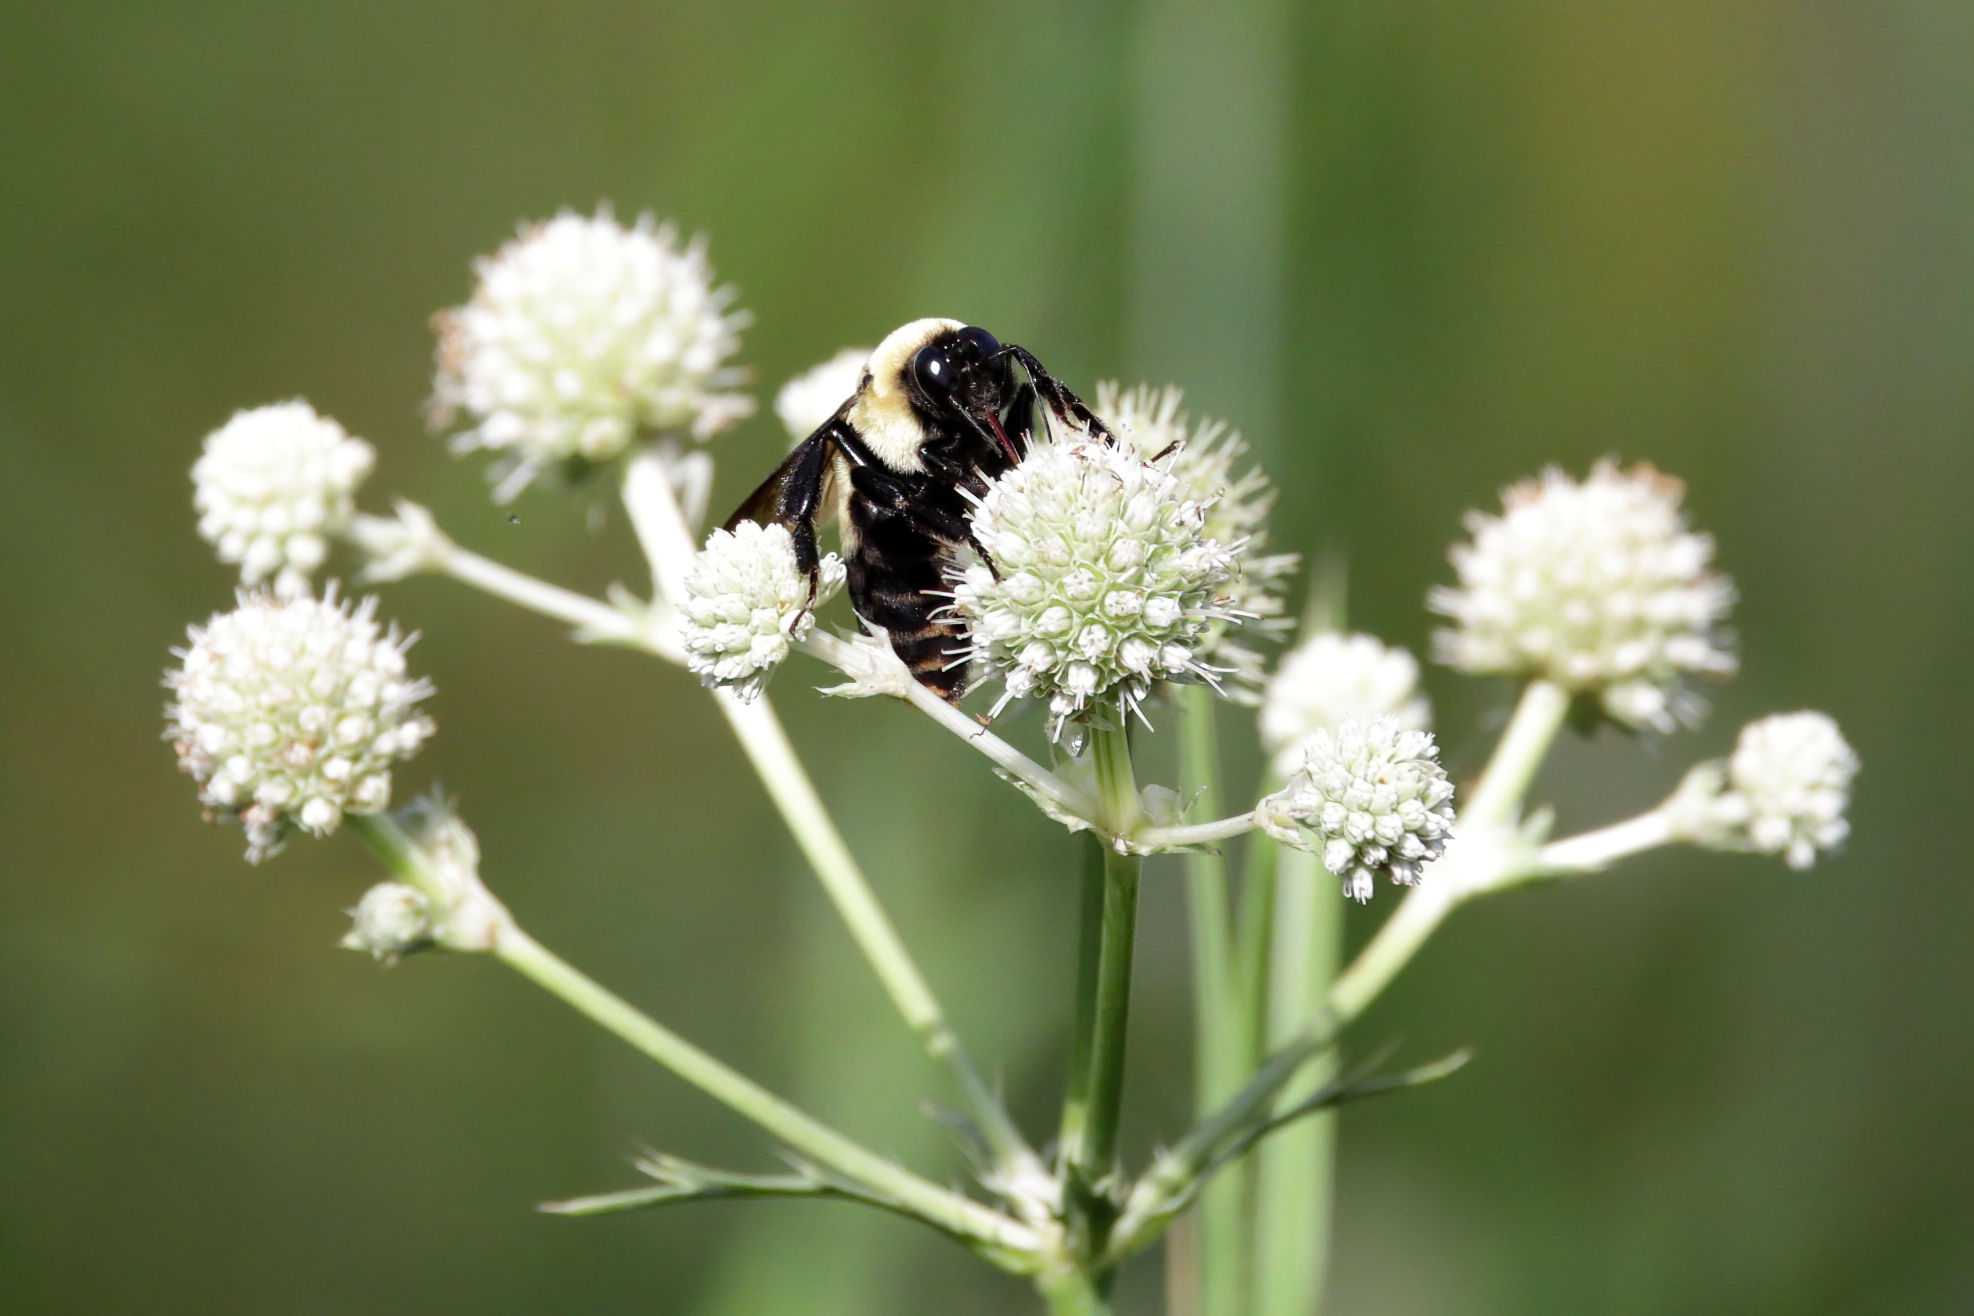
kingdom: Animalia
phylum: Arthropoda
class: Insecta
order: Hymenoptera
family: Apidae
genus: Bombus
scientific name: Bombus fraternus
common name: Southern plains bumble bee
